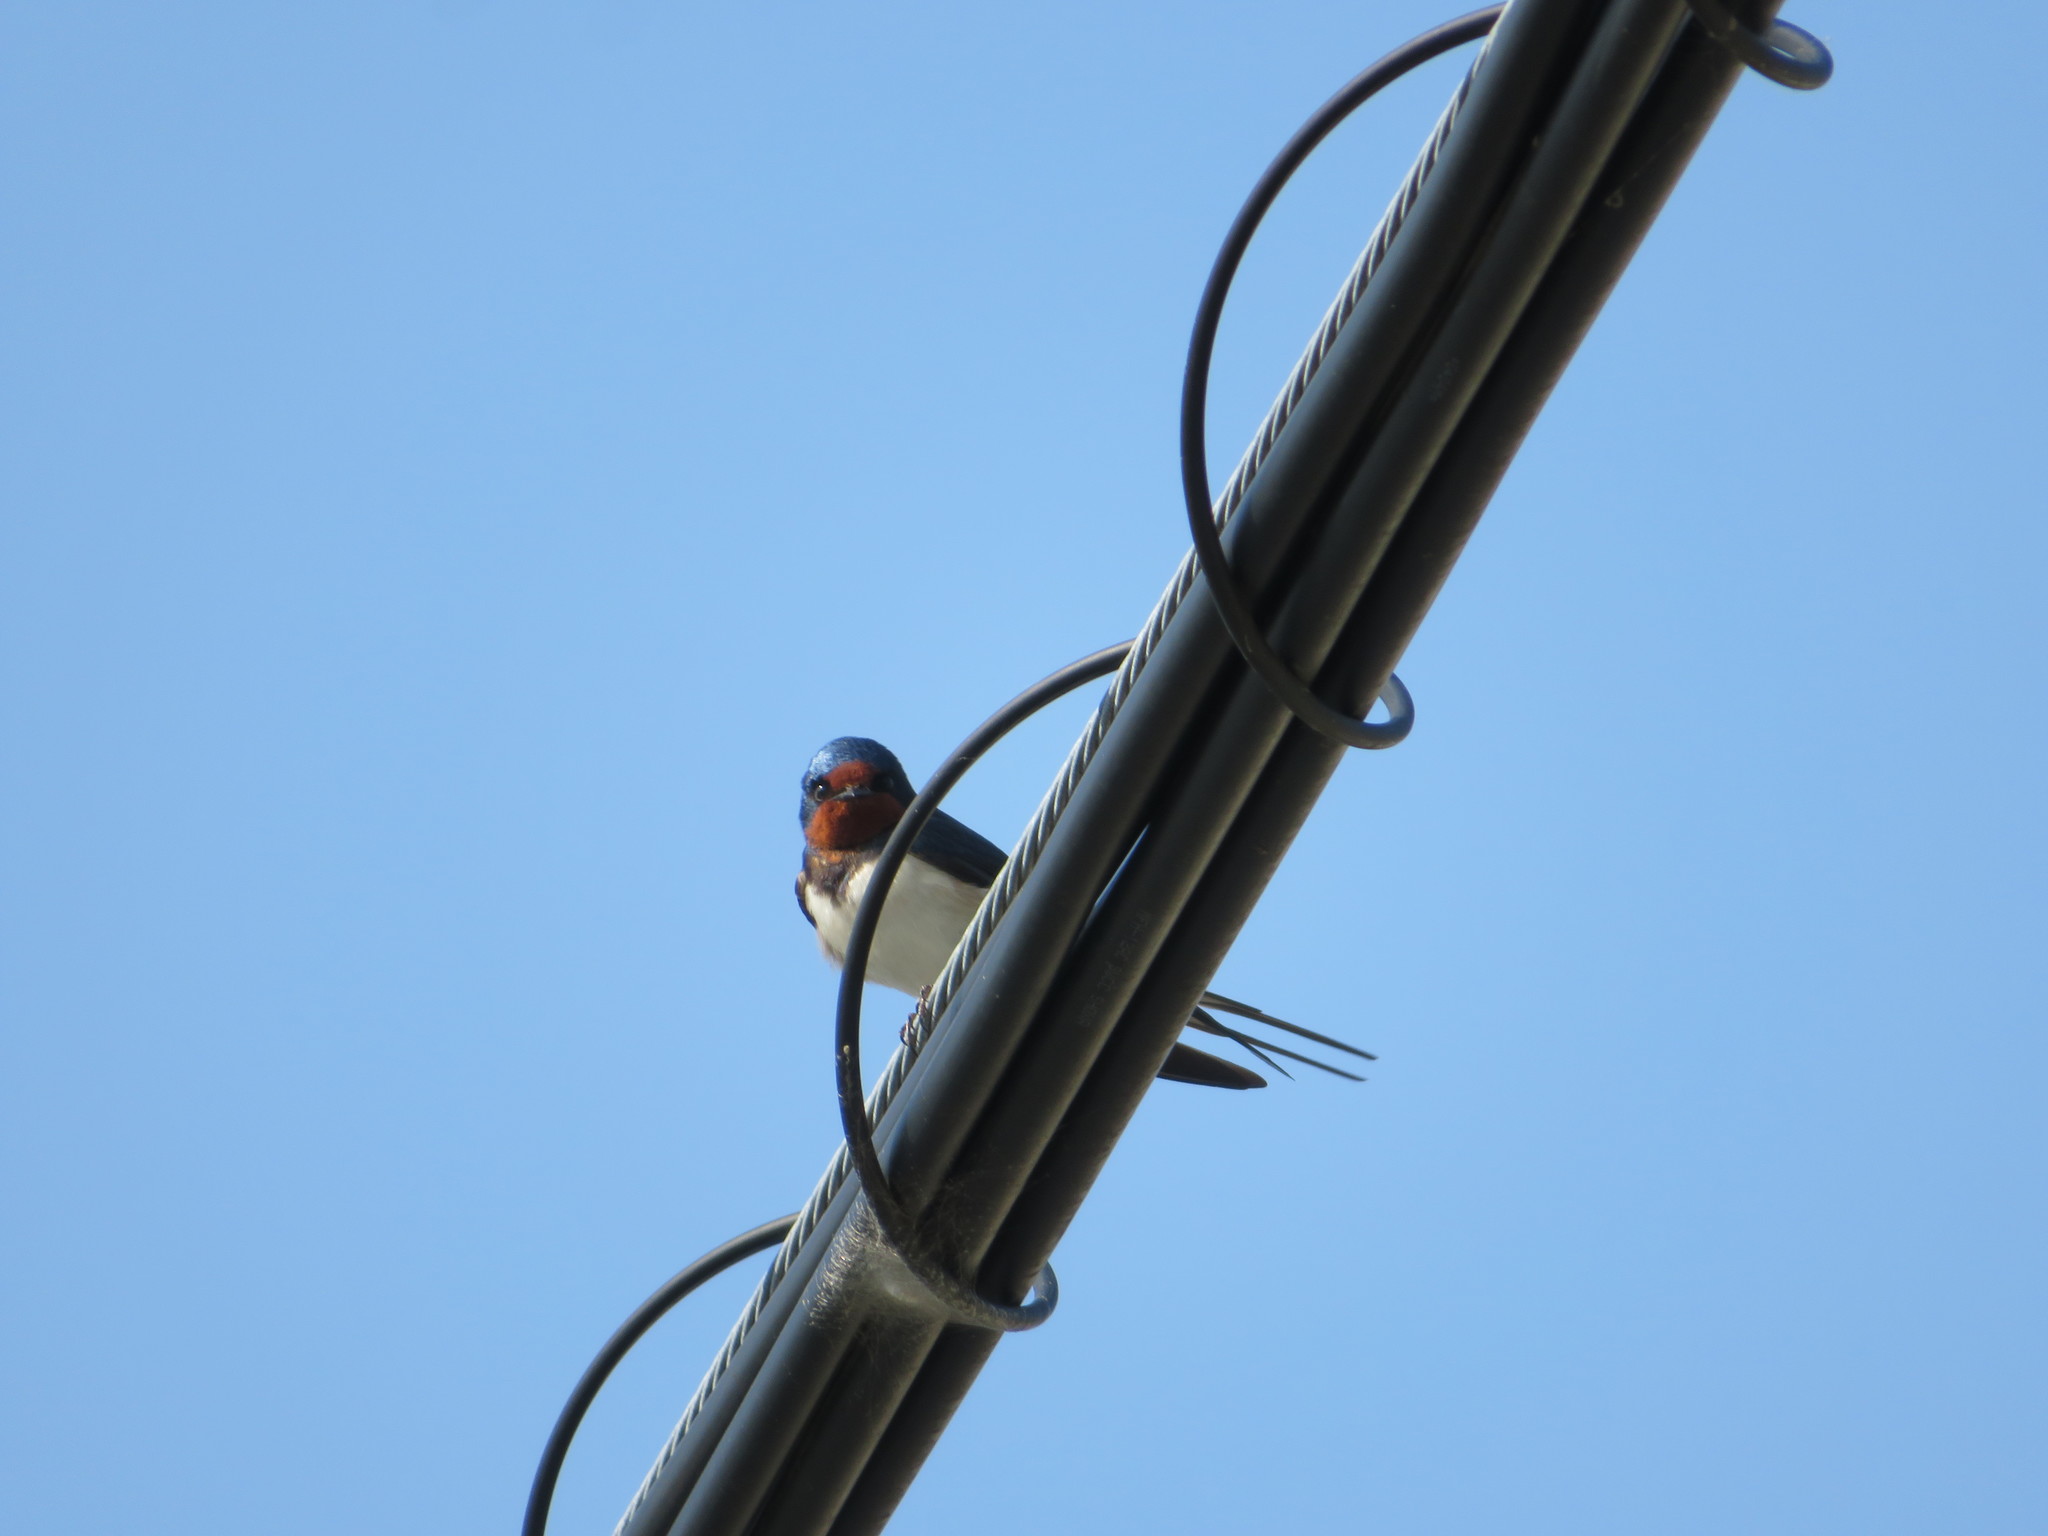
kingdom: Animalia
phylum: Chordata
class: Aves
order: Passeriformes
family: Hirundinidae
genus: Hirundo
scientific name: Hirundo rustica
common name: Barn swallow
